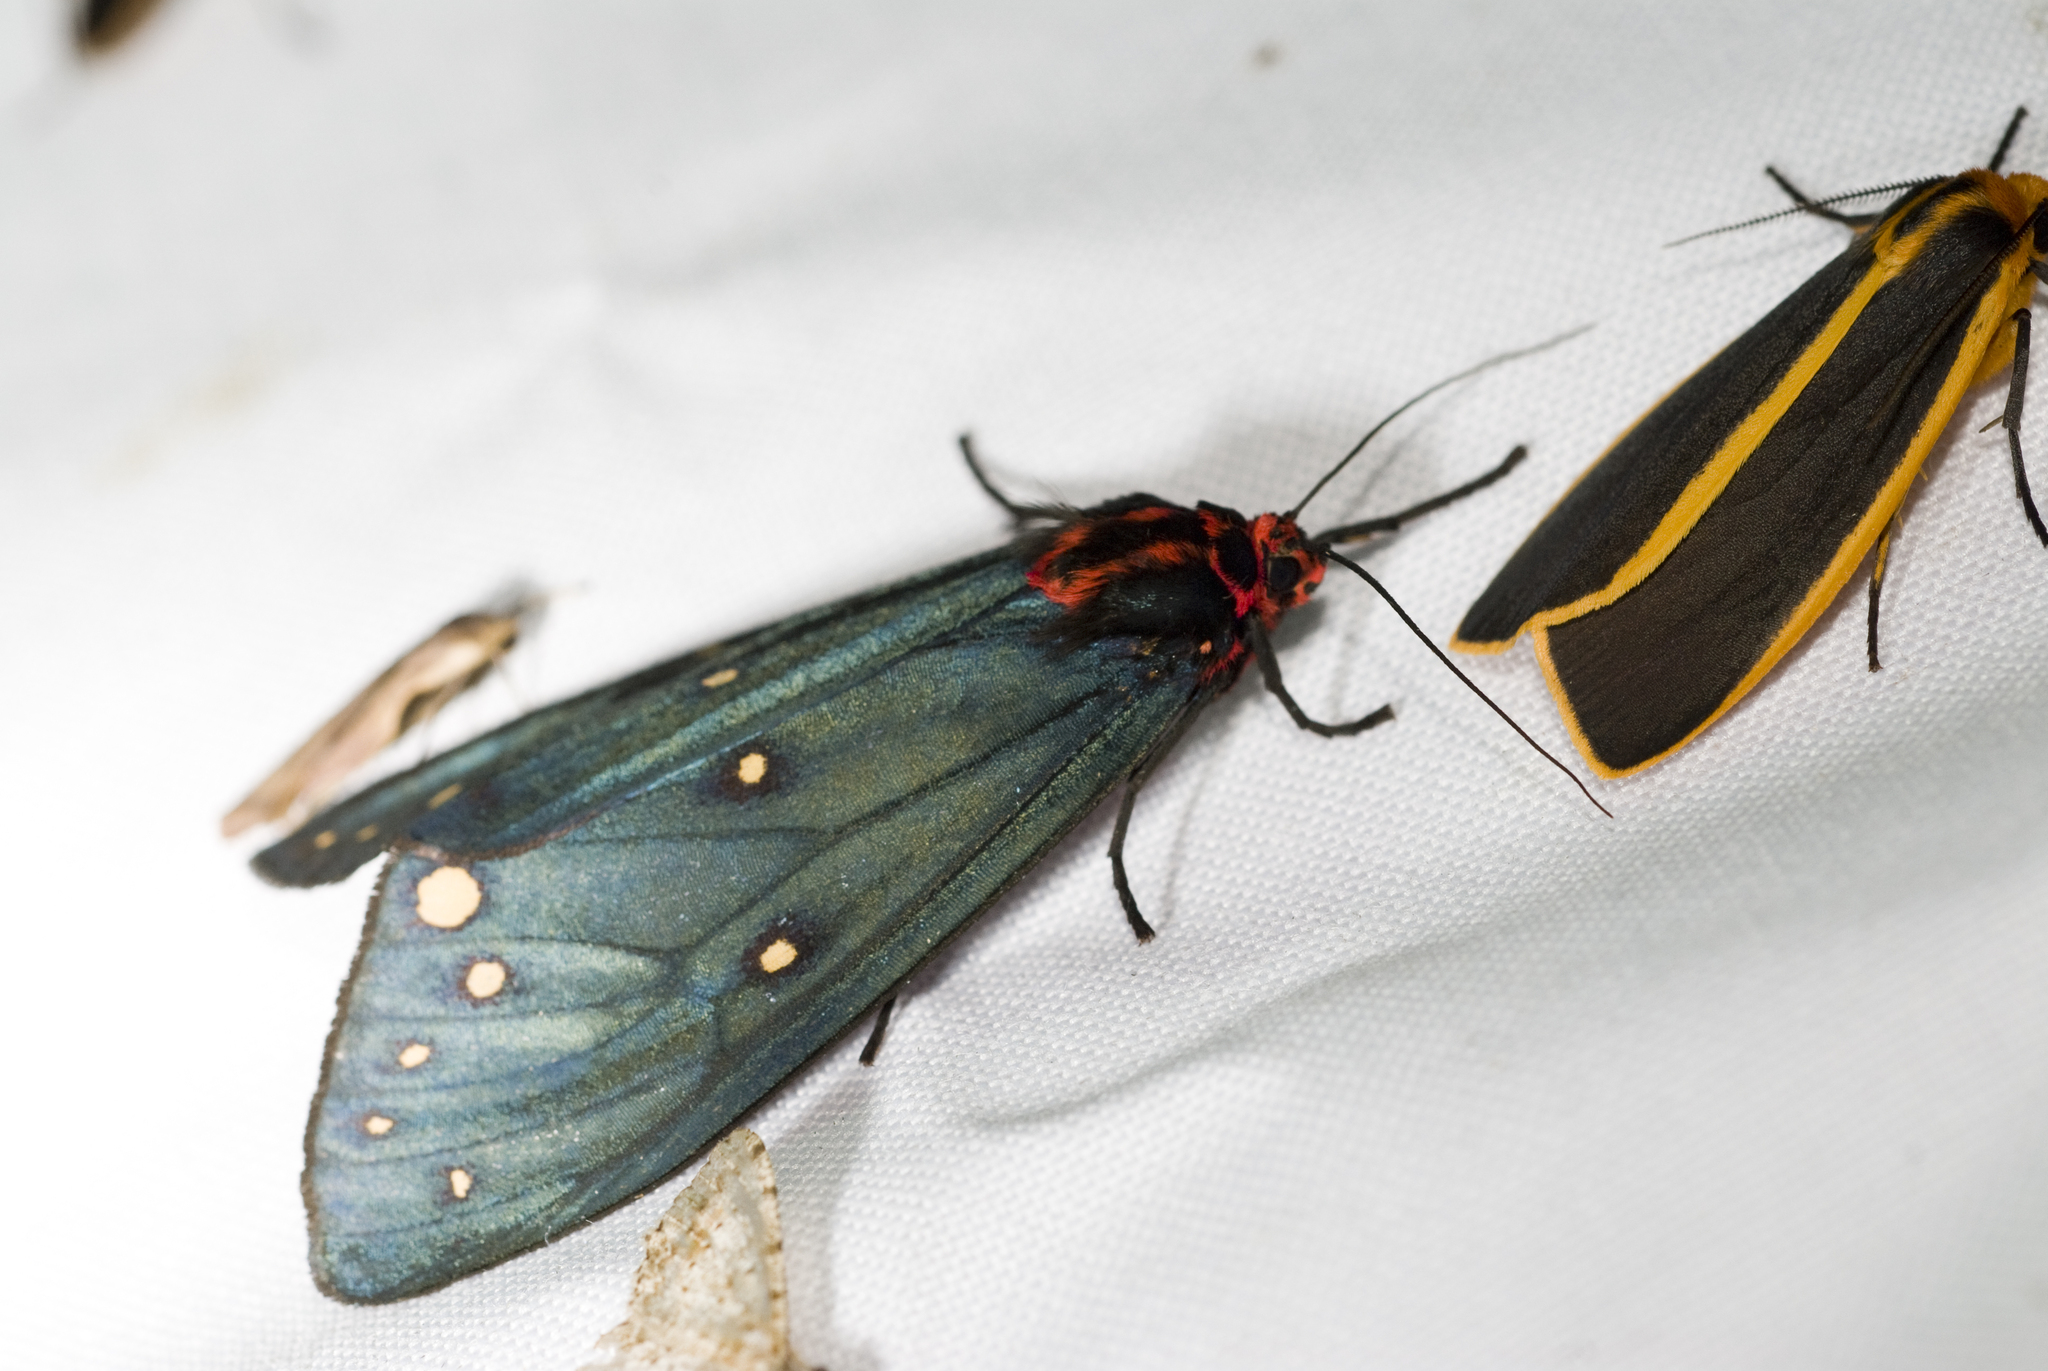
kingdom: Animalia
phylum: Arthropoda
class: Insecta
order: Lepidoptera
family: Erebidae
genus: Taicallimorpha
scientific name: Taicallimorpha albipuncta
